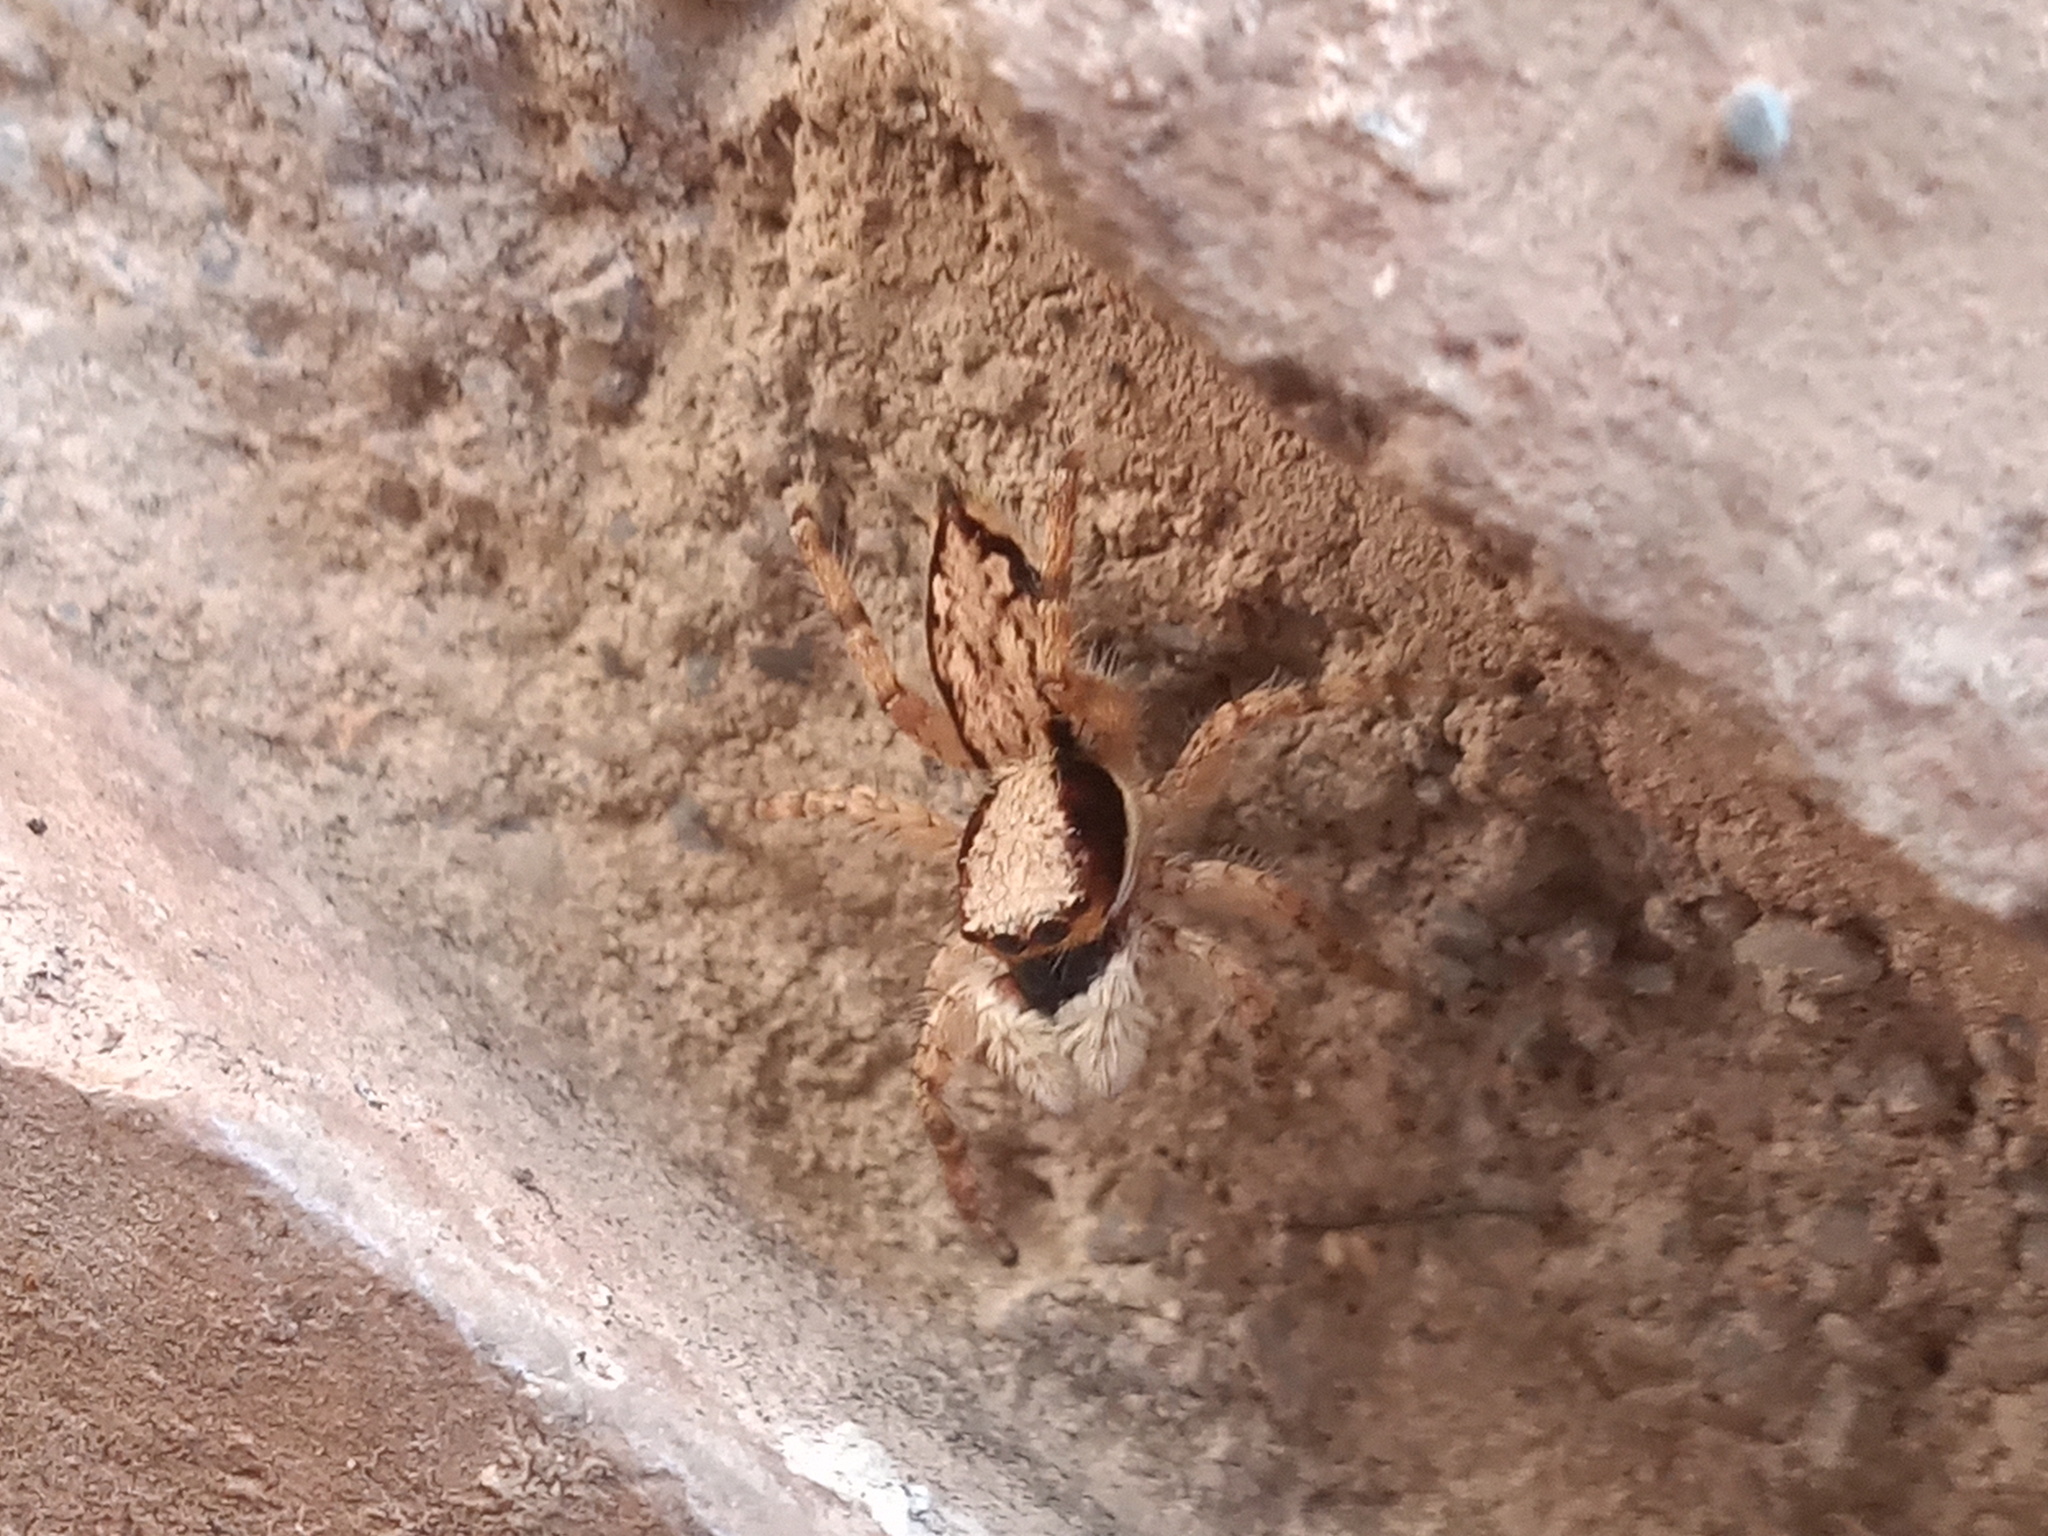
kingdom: Animalia
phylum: Arthropoda
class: Arachnida
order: Araneae
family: Salticidae
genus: Menemerus
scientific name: Menemerus bivittatus
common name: Gray wall jumper
